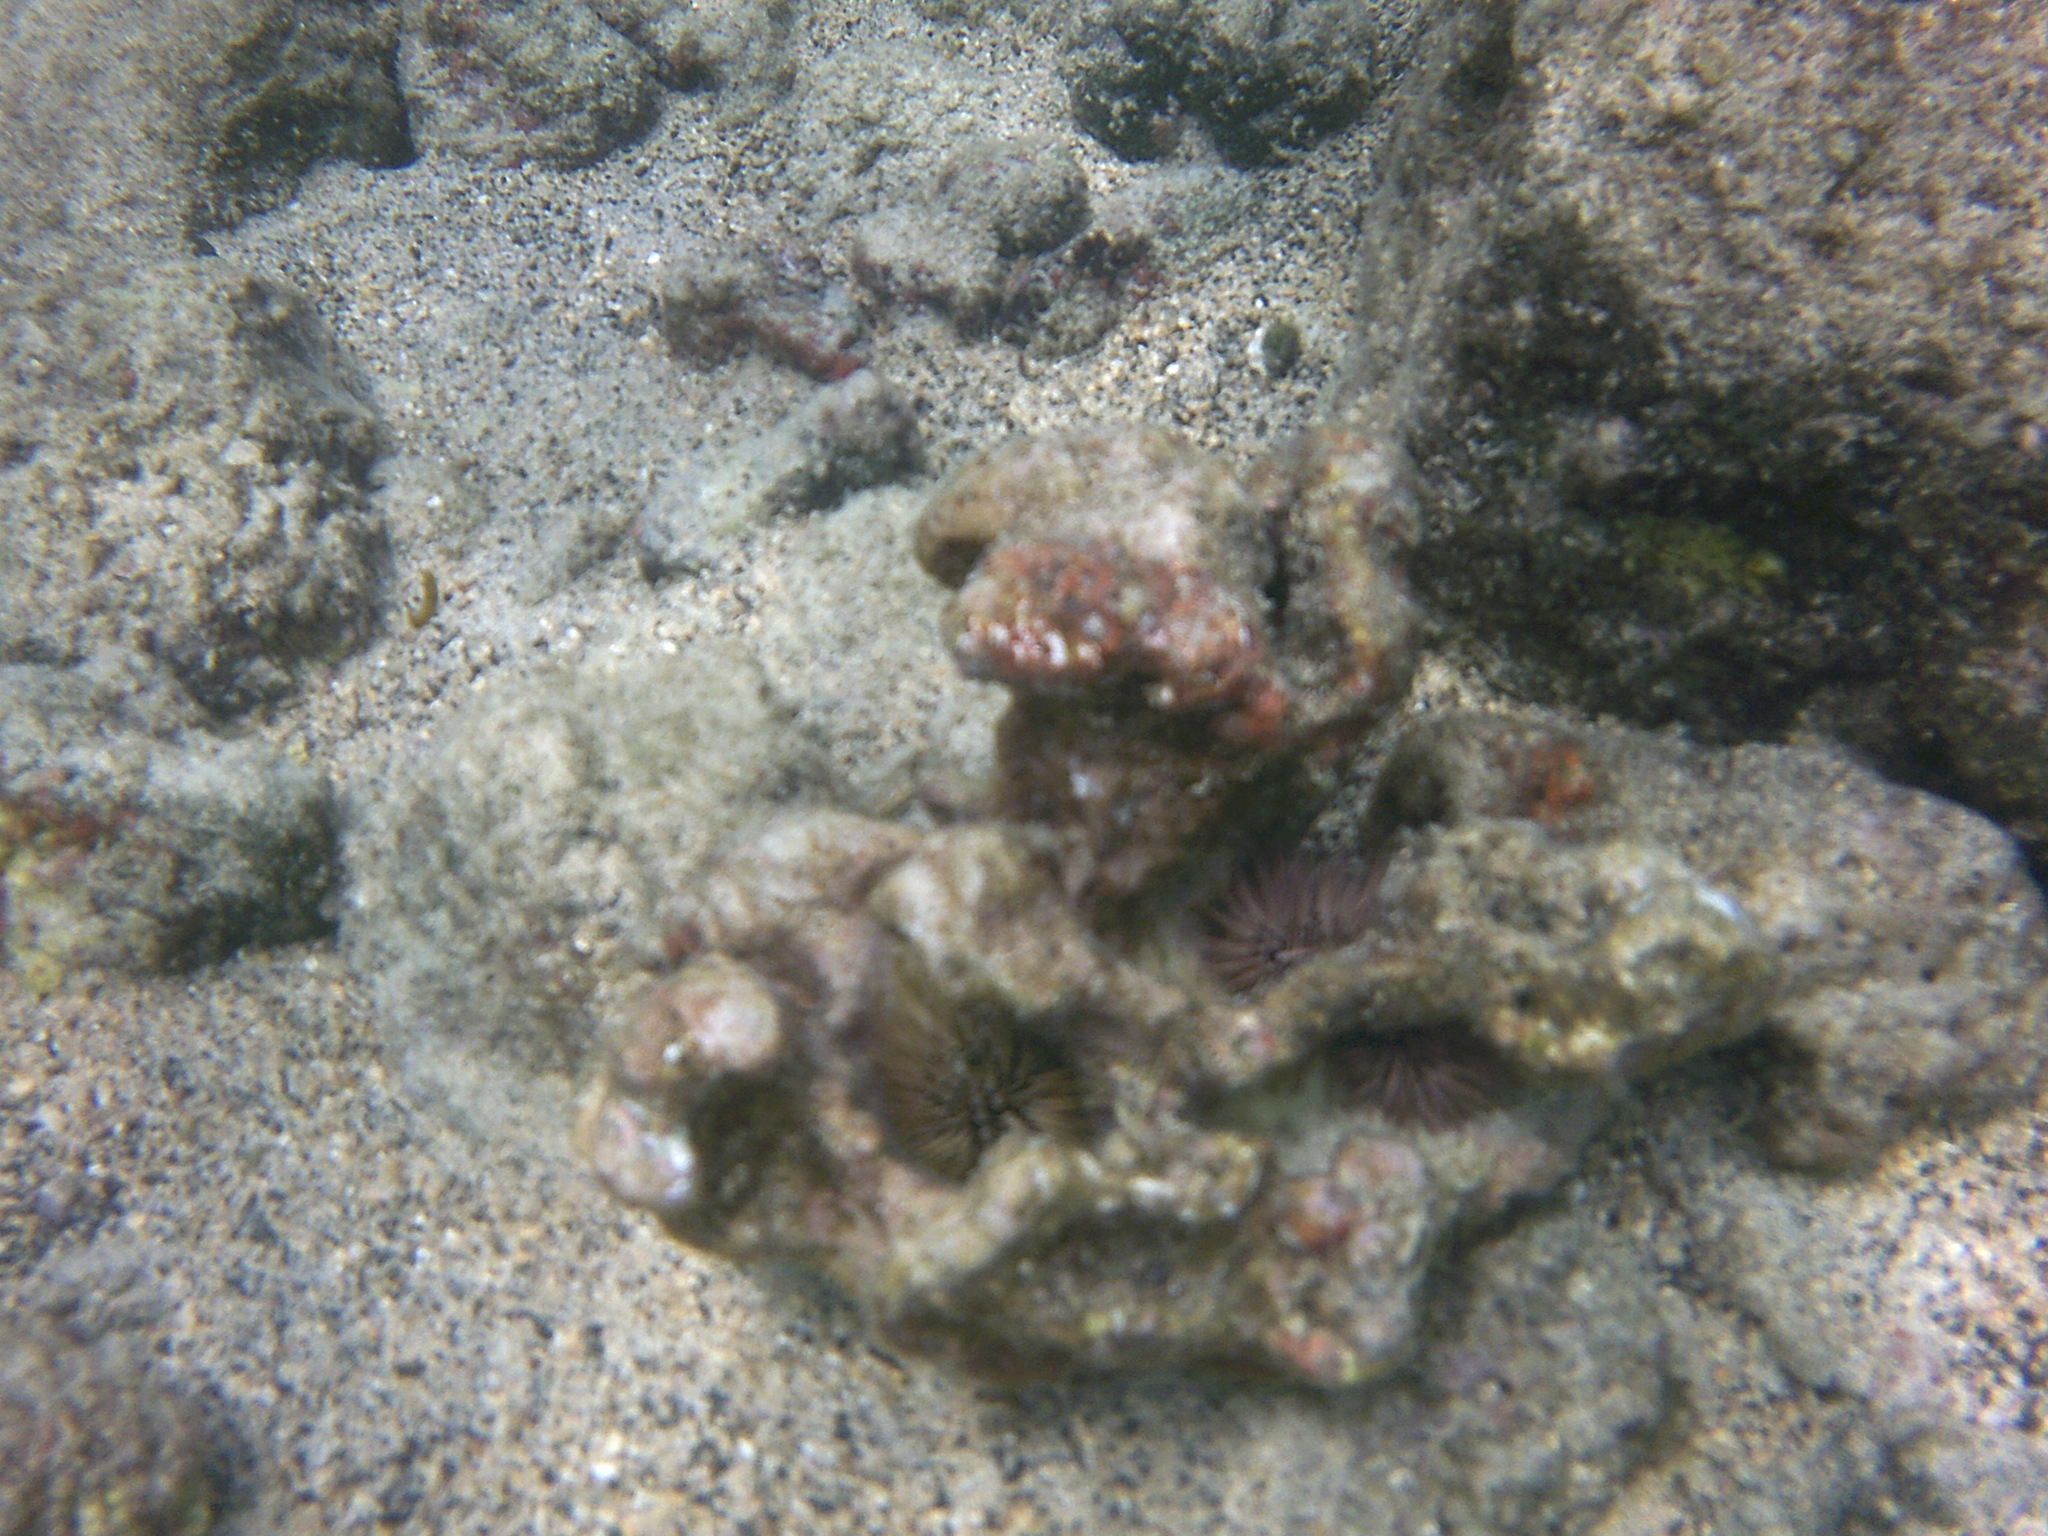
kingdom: Animalia
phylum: Echinodermata
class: Echinoidea
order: Camarodonta
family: Echinometridae
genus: Echinometra
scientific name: Echinometra mathaei
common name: Rock-boring urchin
